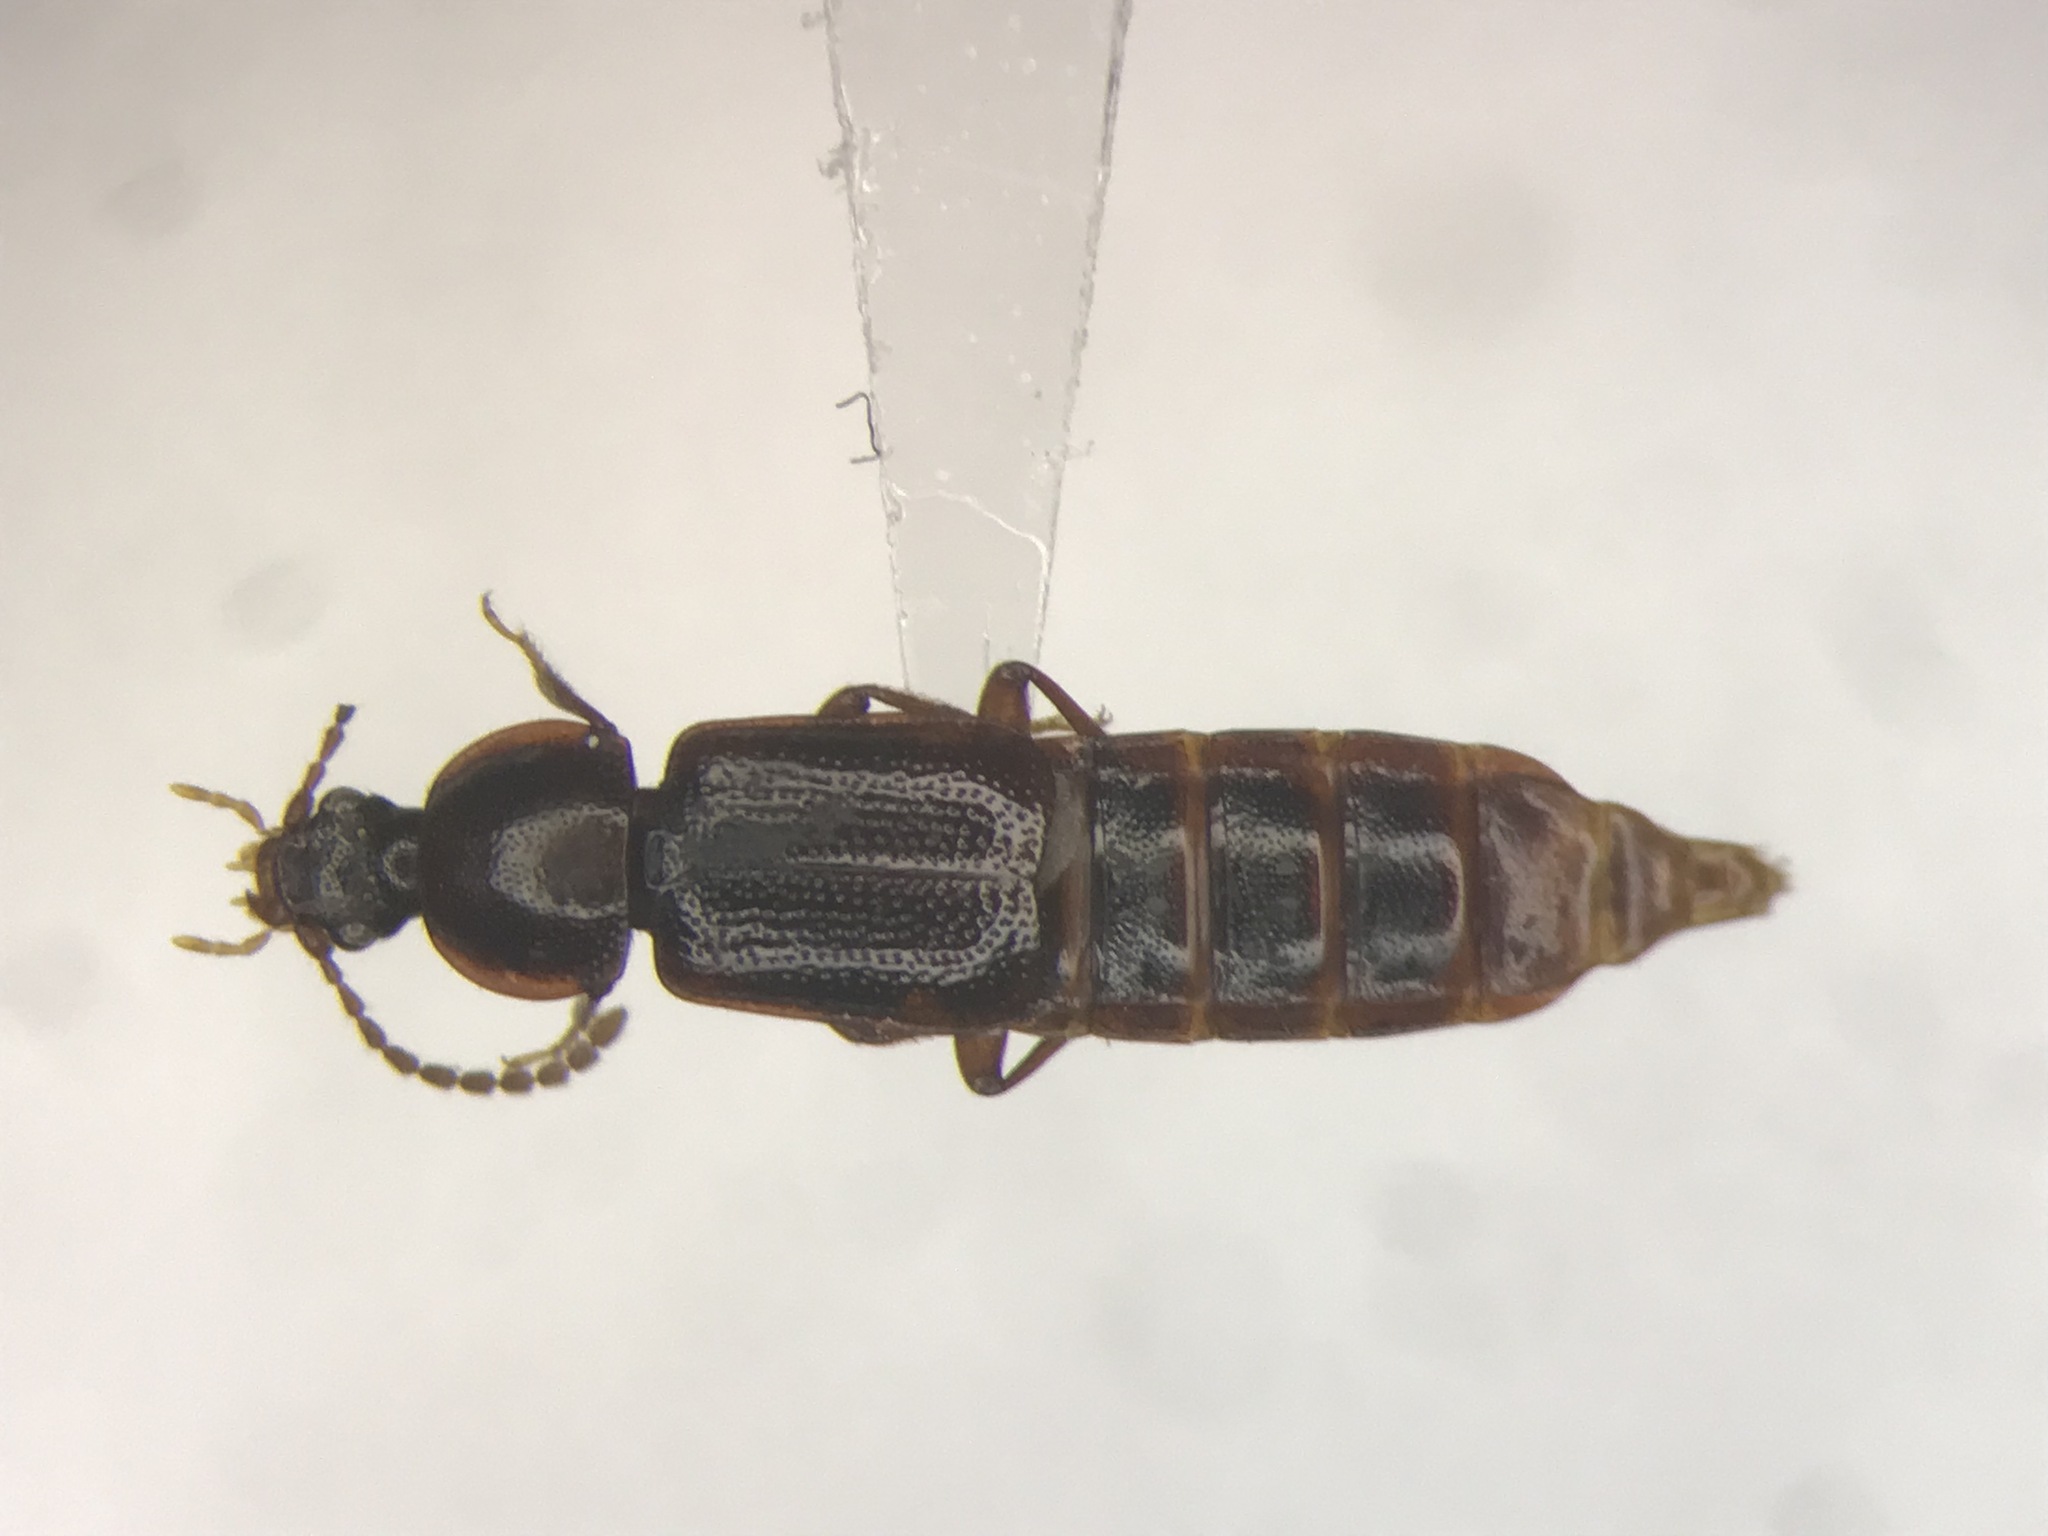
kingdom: Animalia
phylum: Arthropoda
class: Insecta
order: Coleoptera
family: Staphylinidae
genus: Acidota
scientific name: Acidota crenata
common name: Staph beetle
